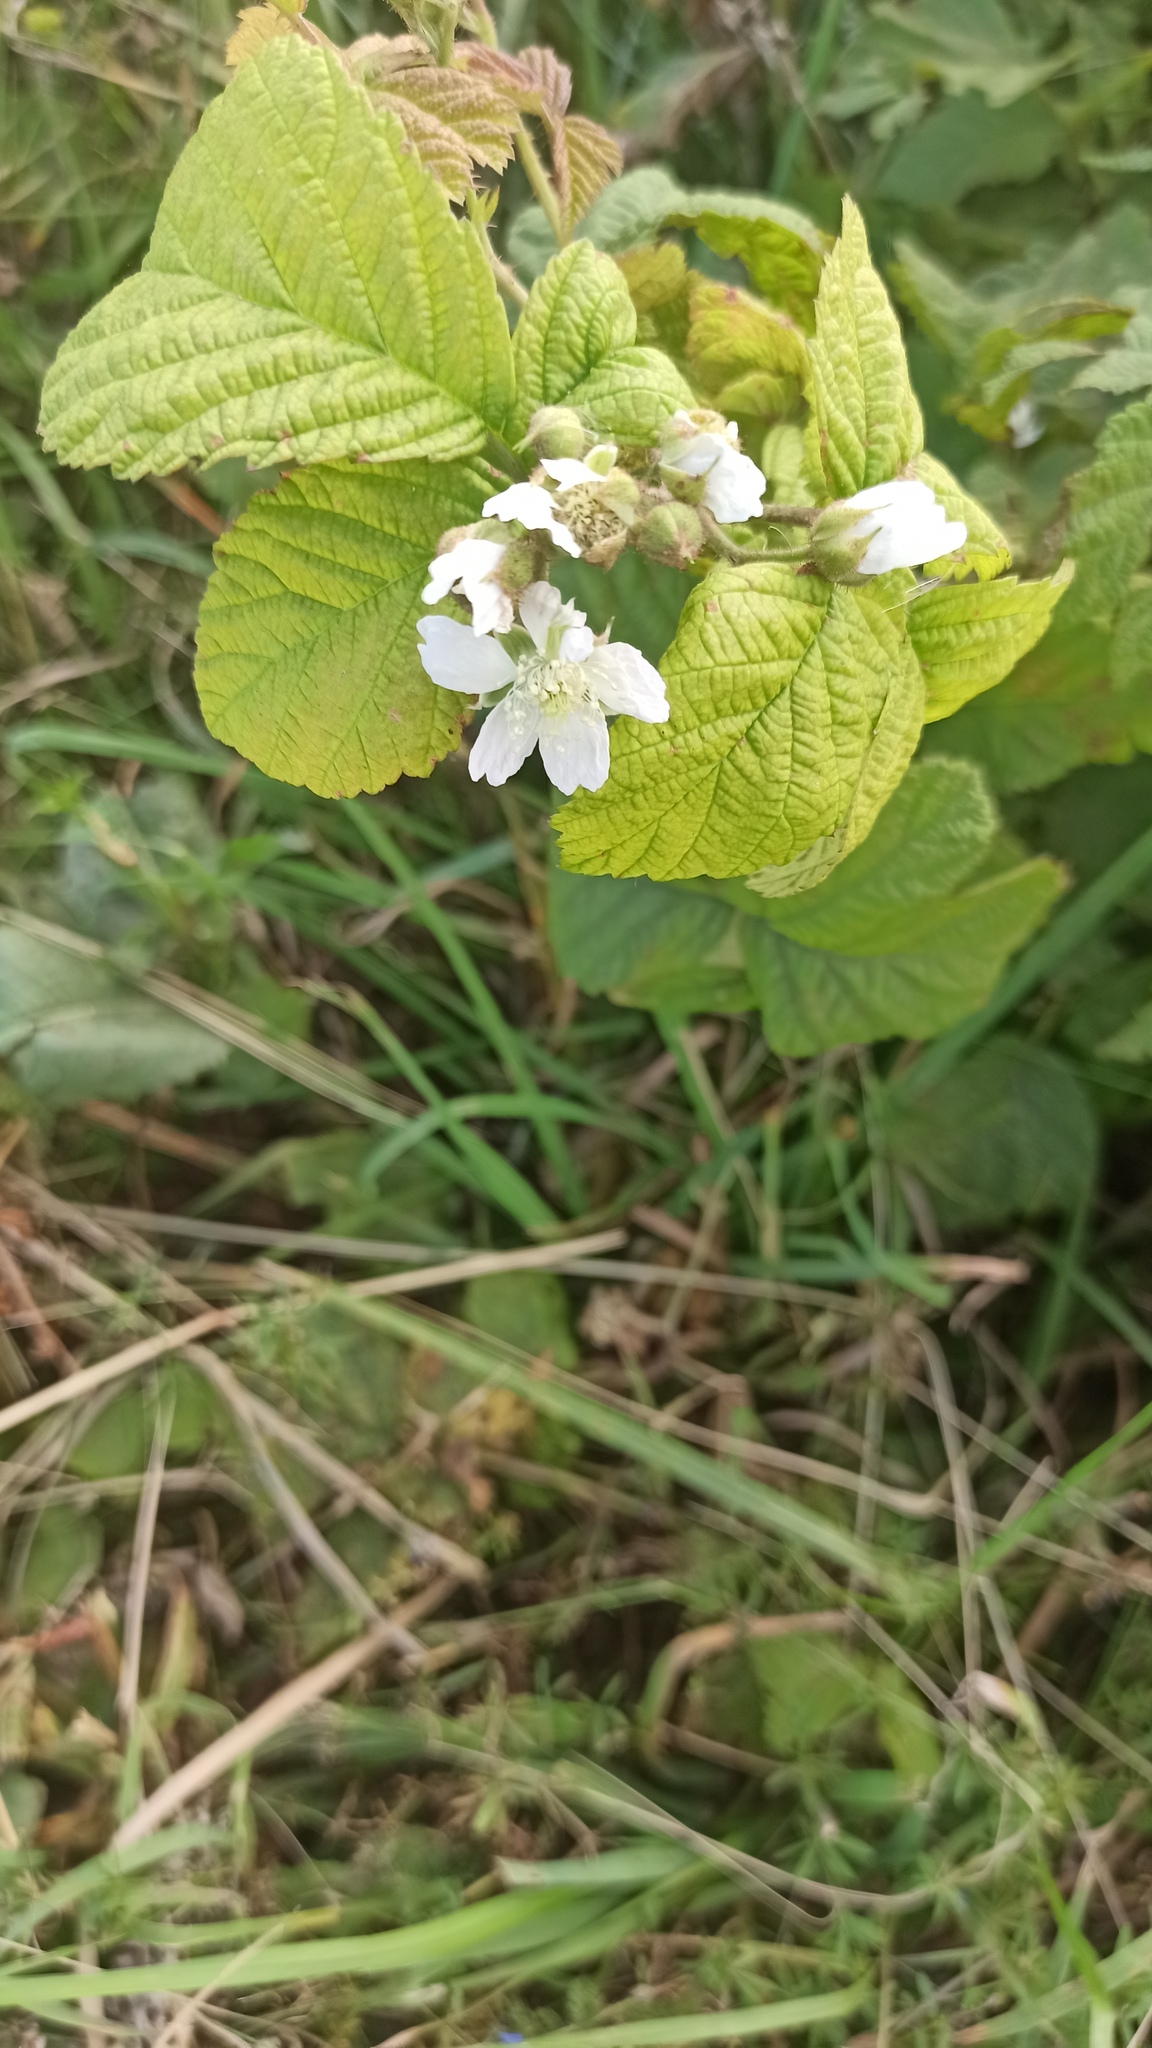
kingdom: Plantae
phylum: Tracheophyta
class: Magnoliopsida
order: Rosales
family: Rosaceae
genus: Rubus
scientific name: Rubus caesius
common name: Dewberry
